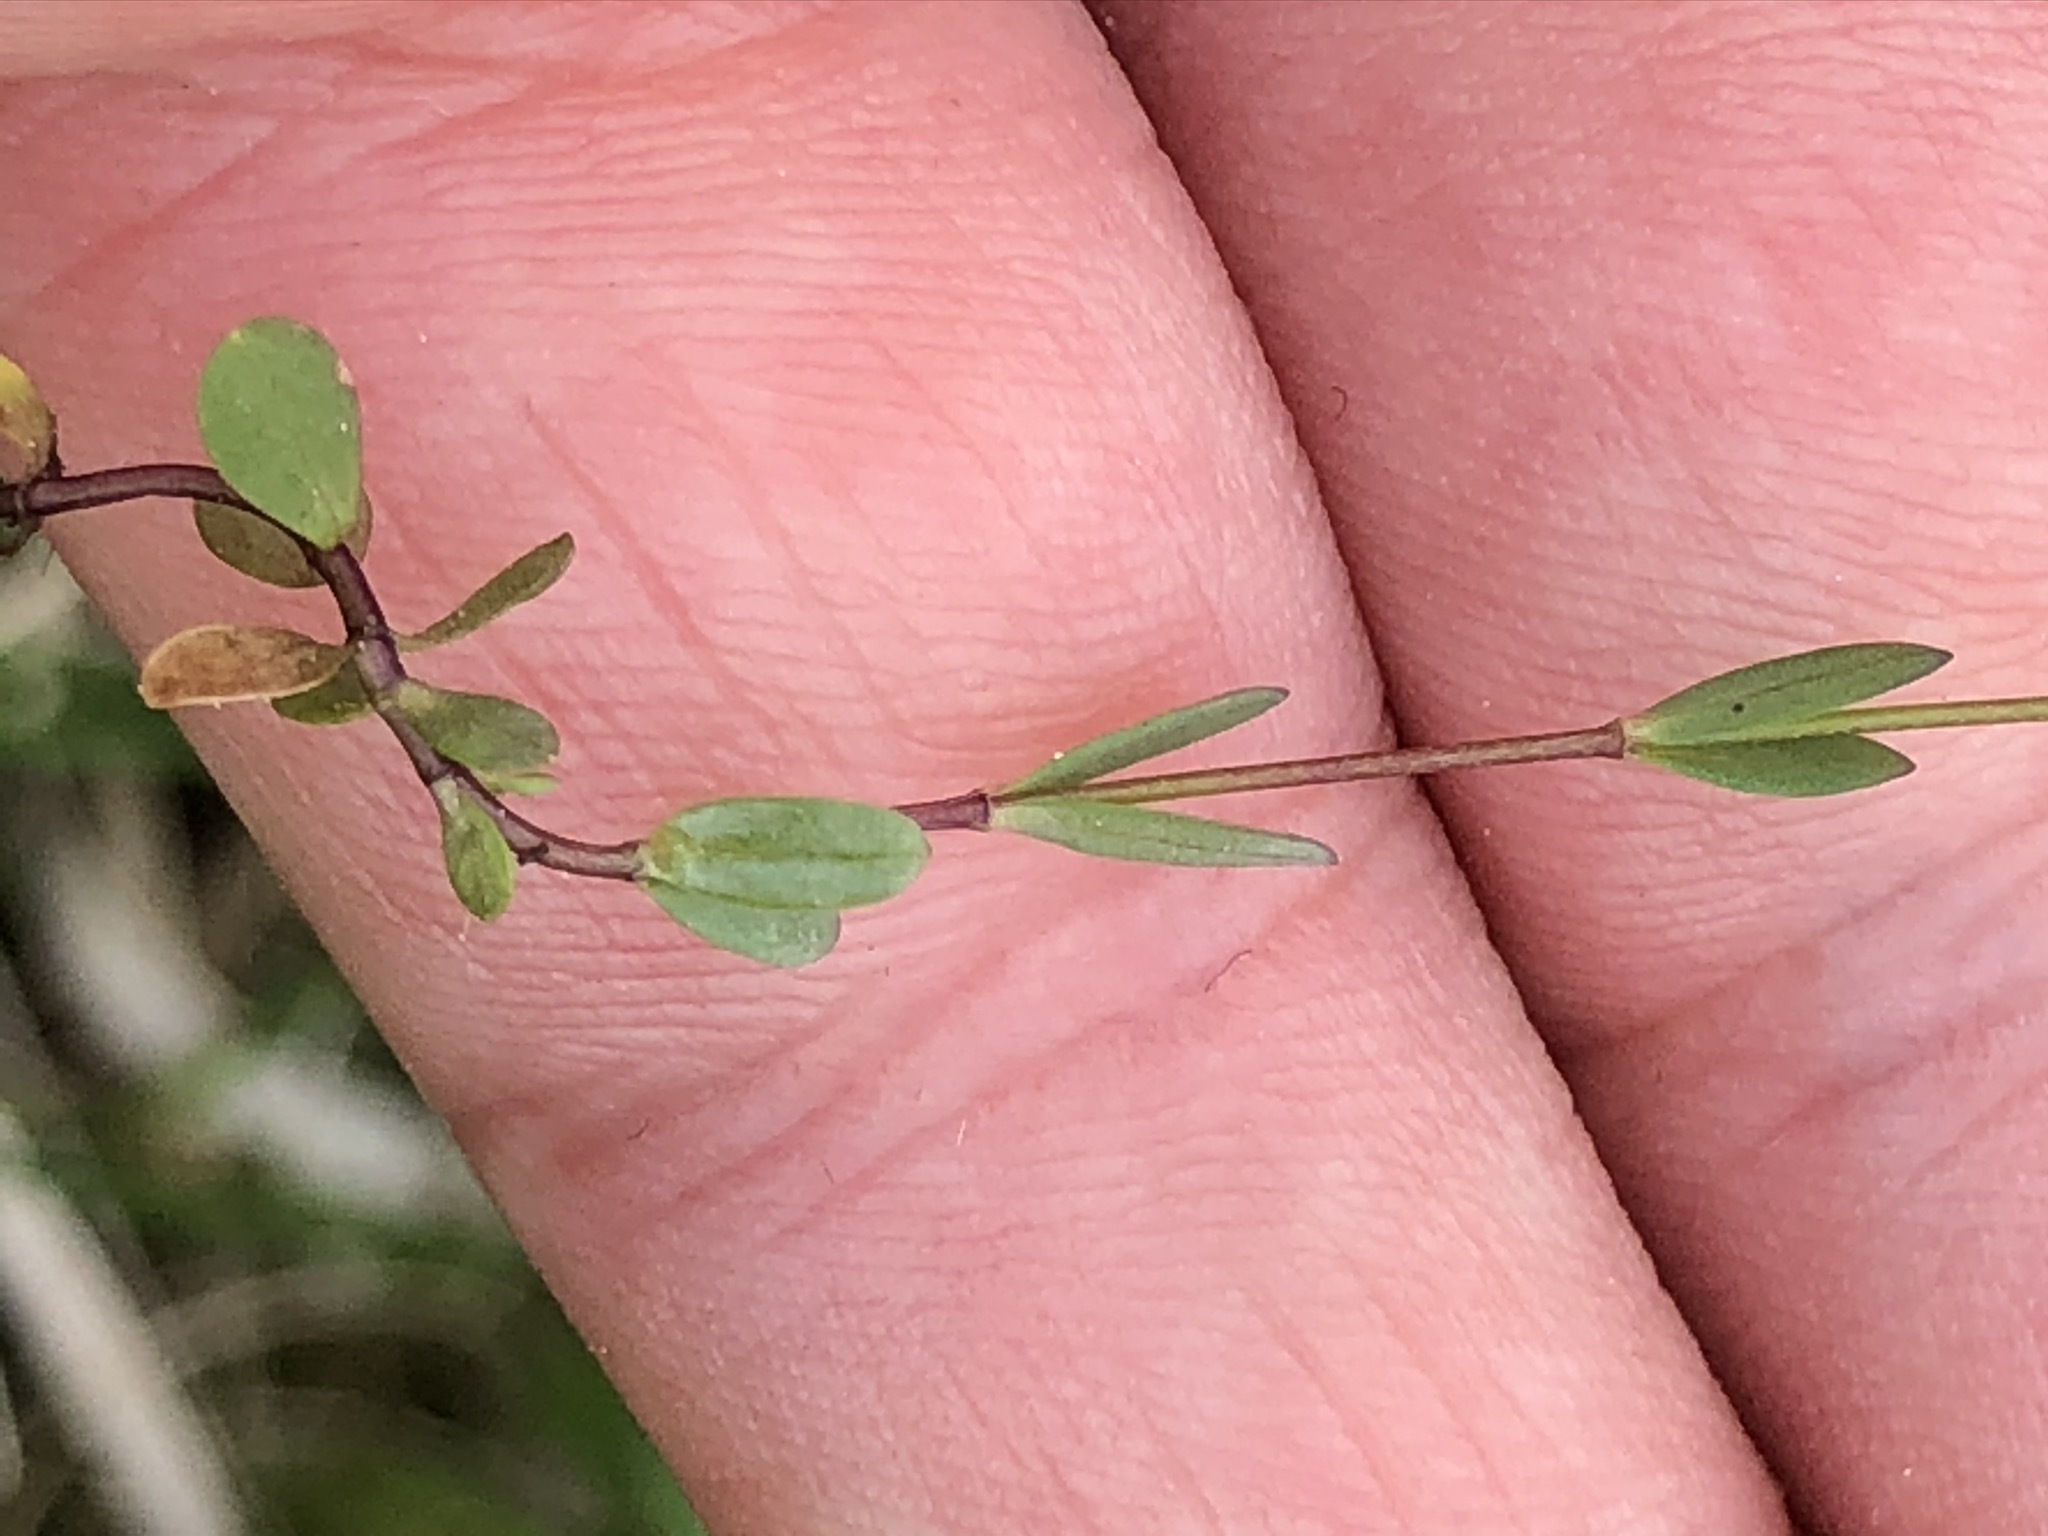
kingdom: Plantae
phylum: Tracheophyta
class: Magnoliopsida
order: Malpighiales
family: Linaceae
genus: Linum
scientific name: Linum catharticum
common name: Fairy flax
